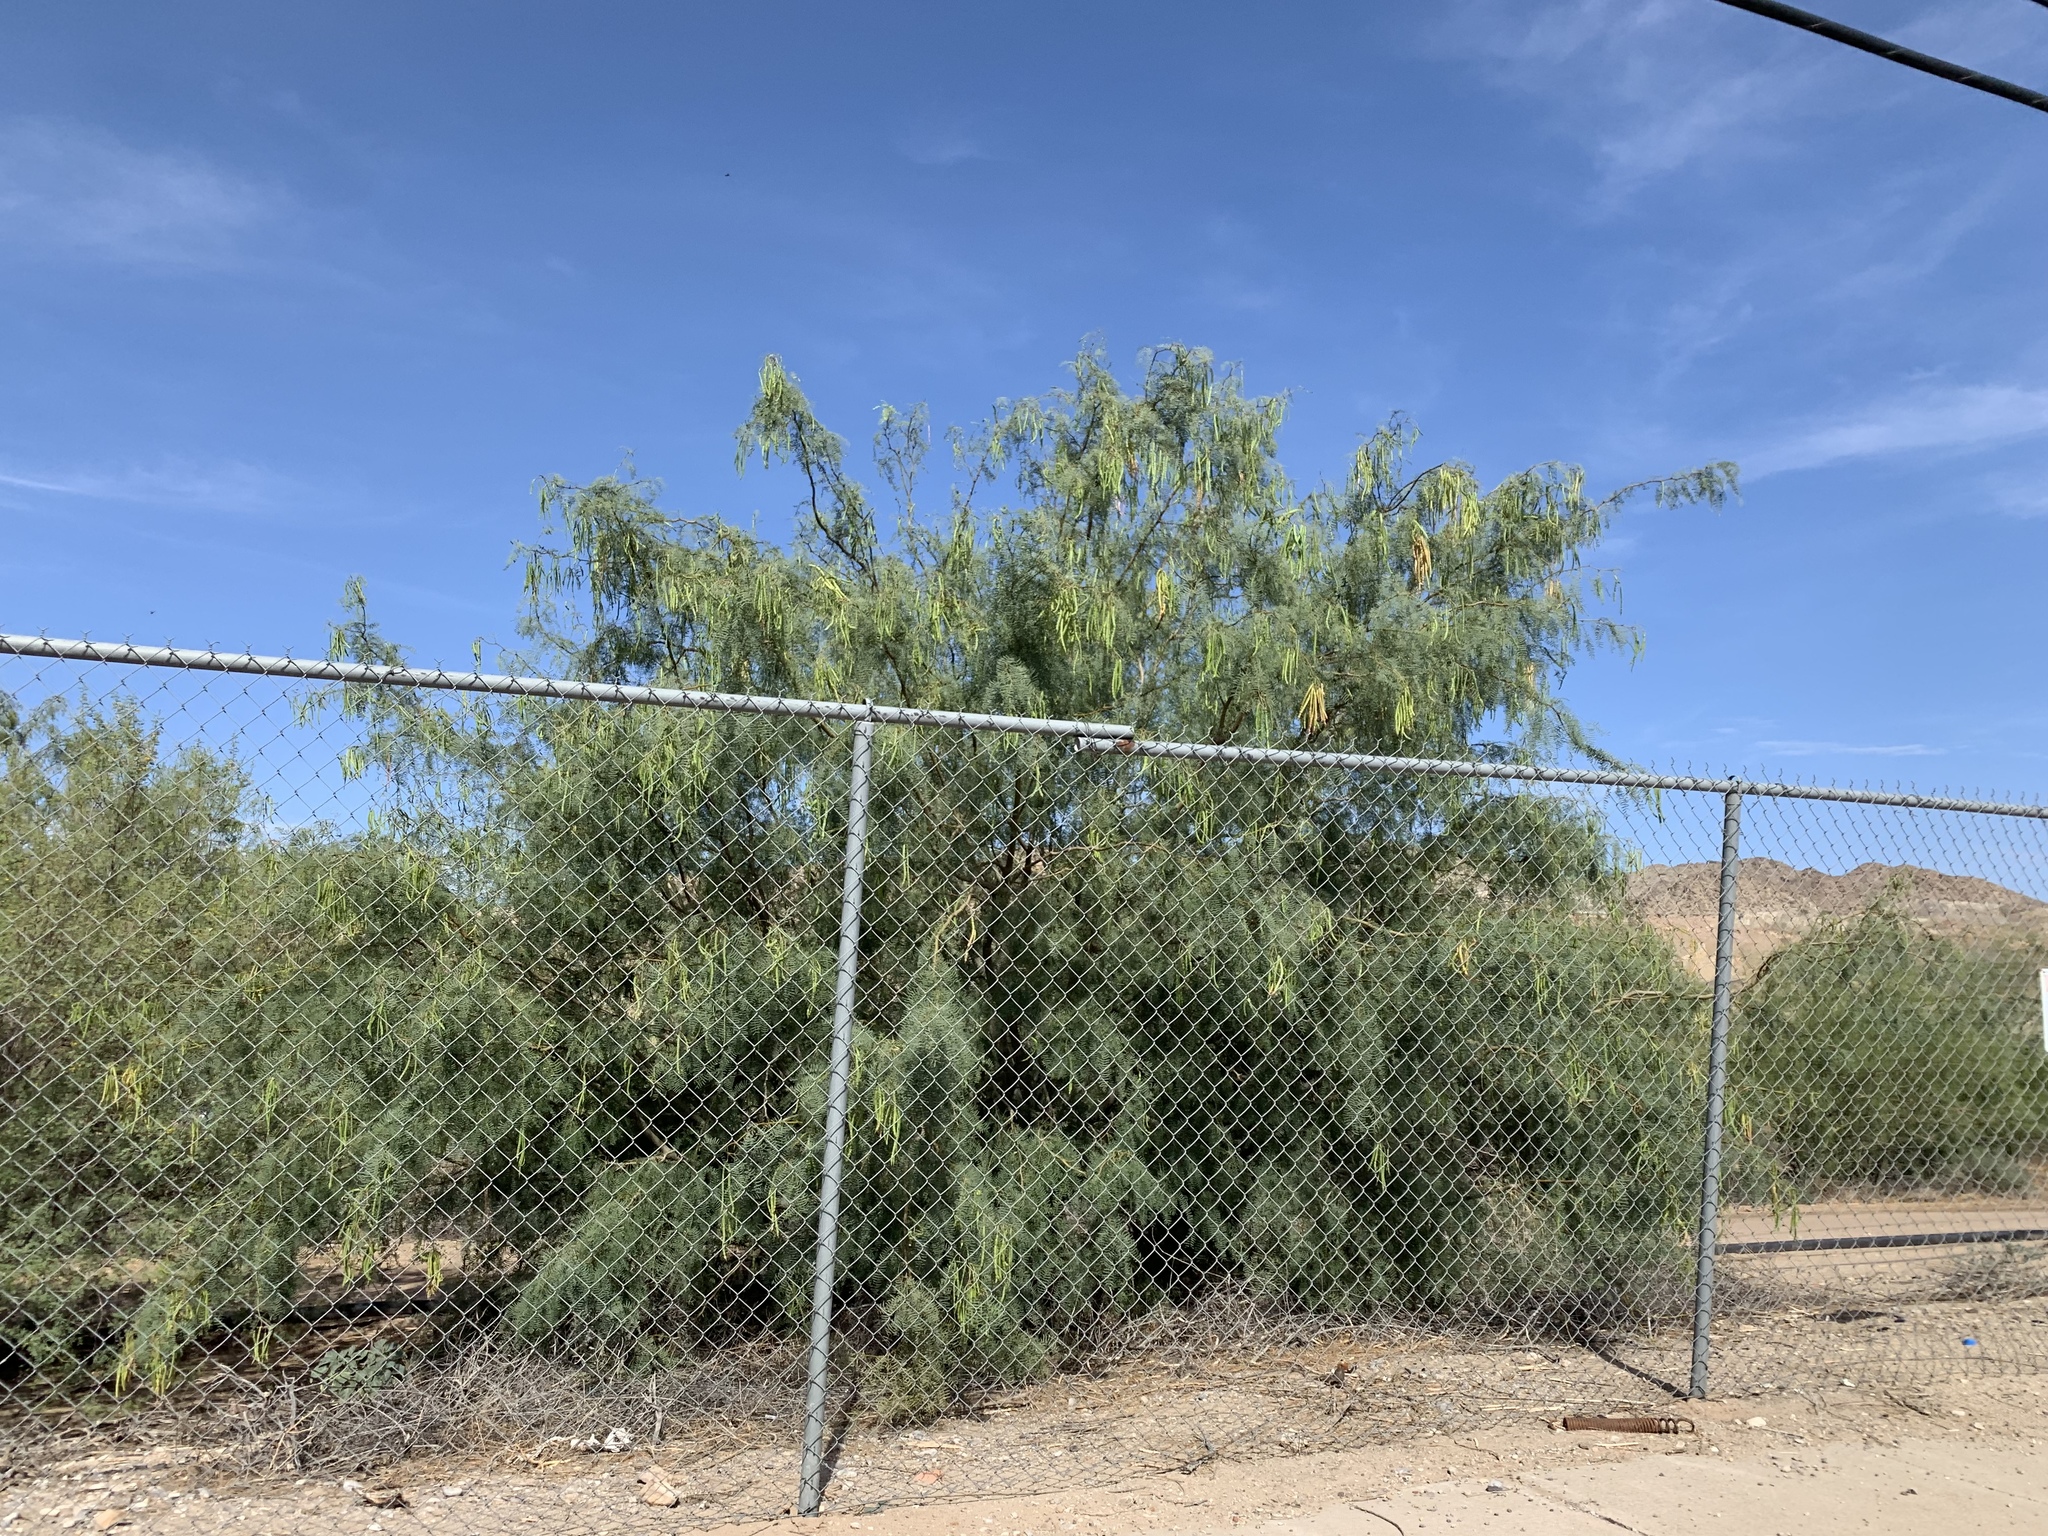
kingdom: Plantae
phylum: Tracheophyta
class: Magnoliopsida
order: Fabales
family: Fabaceae
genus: Prosopis
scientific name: Prosopis glandulosa
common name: Honey mesquite
